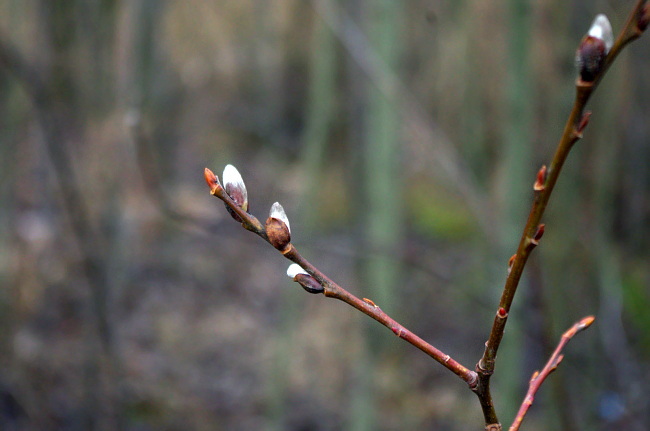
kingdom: Plantae
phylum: Tracheophyta
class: Magnoliopsida
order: Malpighiales
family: Salicaceae
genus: Salix
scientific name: Salix caprea
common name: Goat willow
